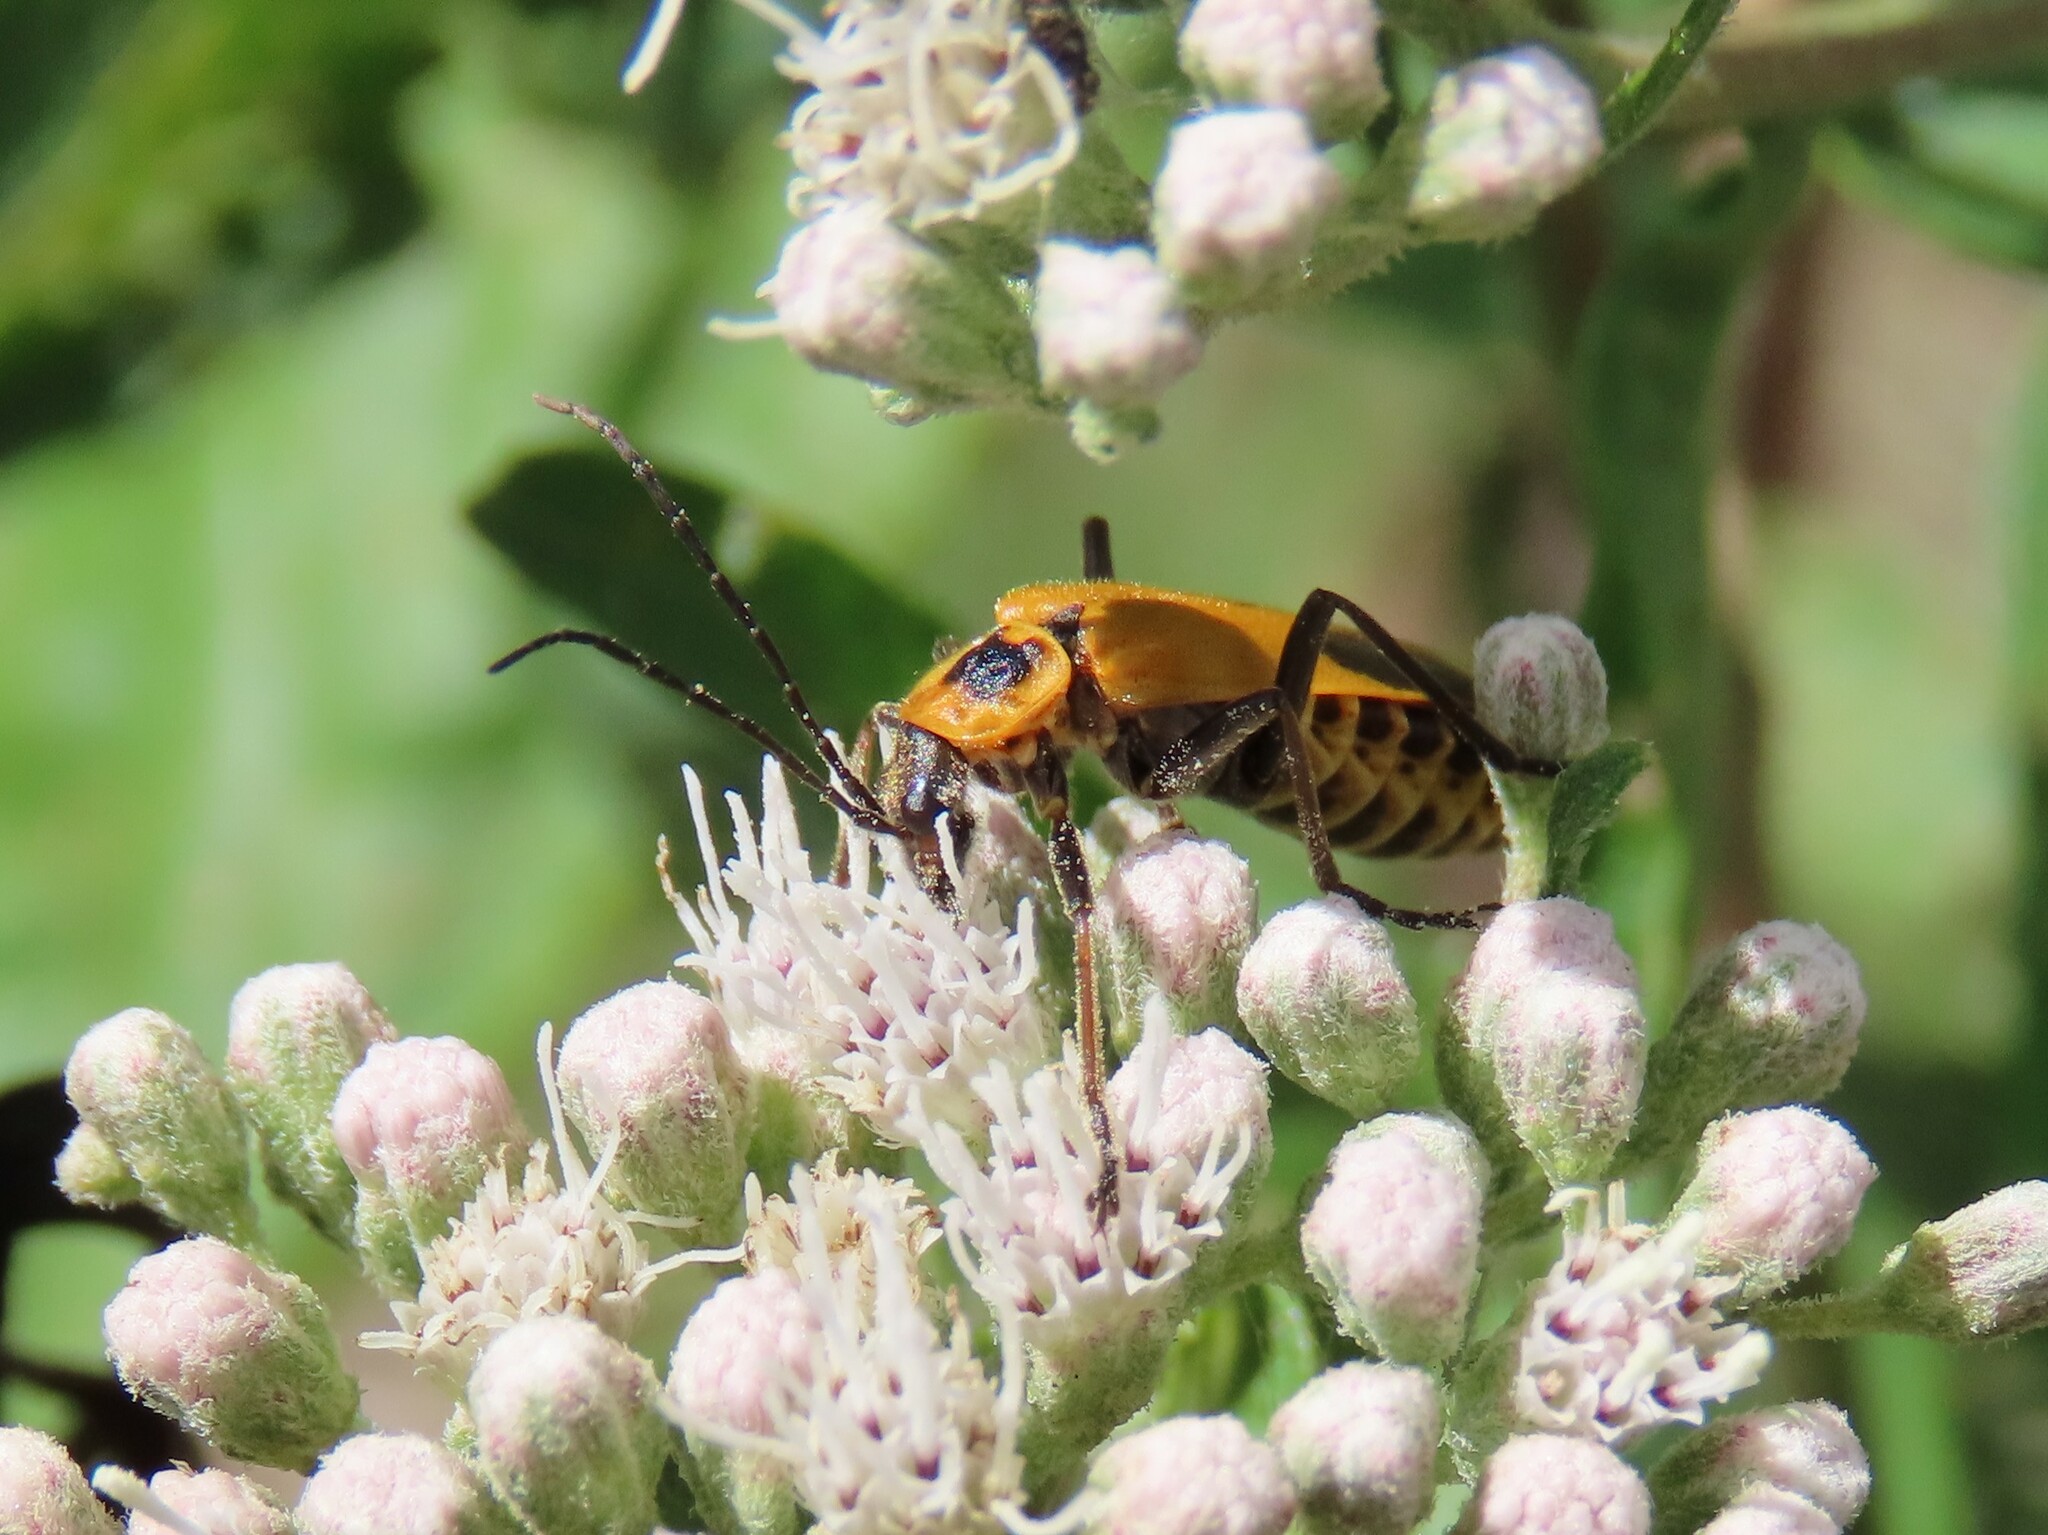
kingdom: Animalia
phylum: Arthropoda
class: Insecta
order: Coleoptera
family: Cantharidae
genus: Chauliognathus
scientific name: Chauliognathus pensylvanicus
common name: Goldenrod soldier beetle
